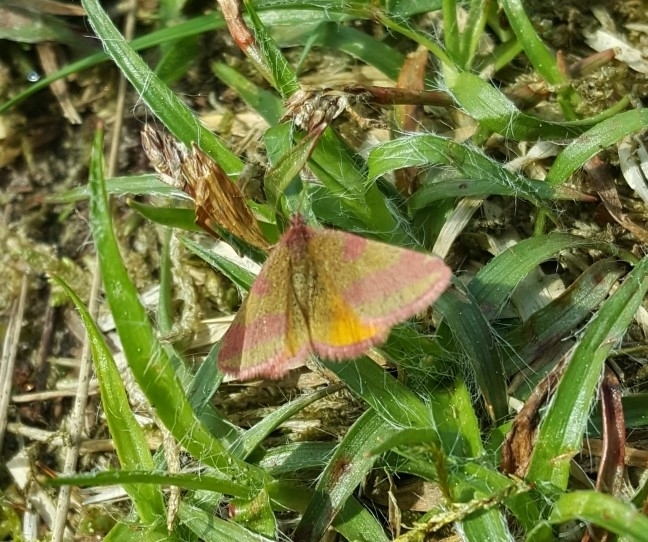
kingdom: Animalia
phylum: Arthropoda
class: Insecta
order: Lepidoptera
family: Geometridae
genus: Lythria
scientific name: Lythria cruentaria
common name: Purple-barred yellow
